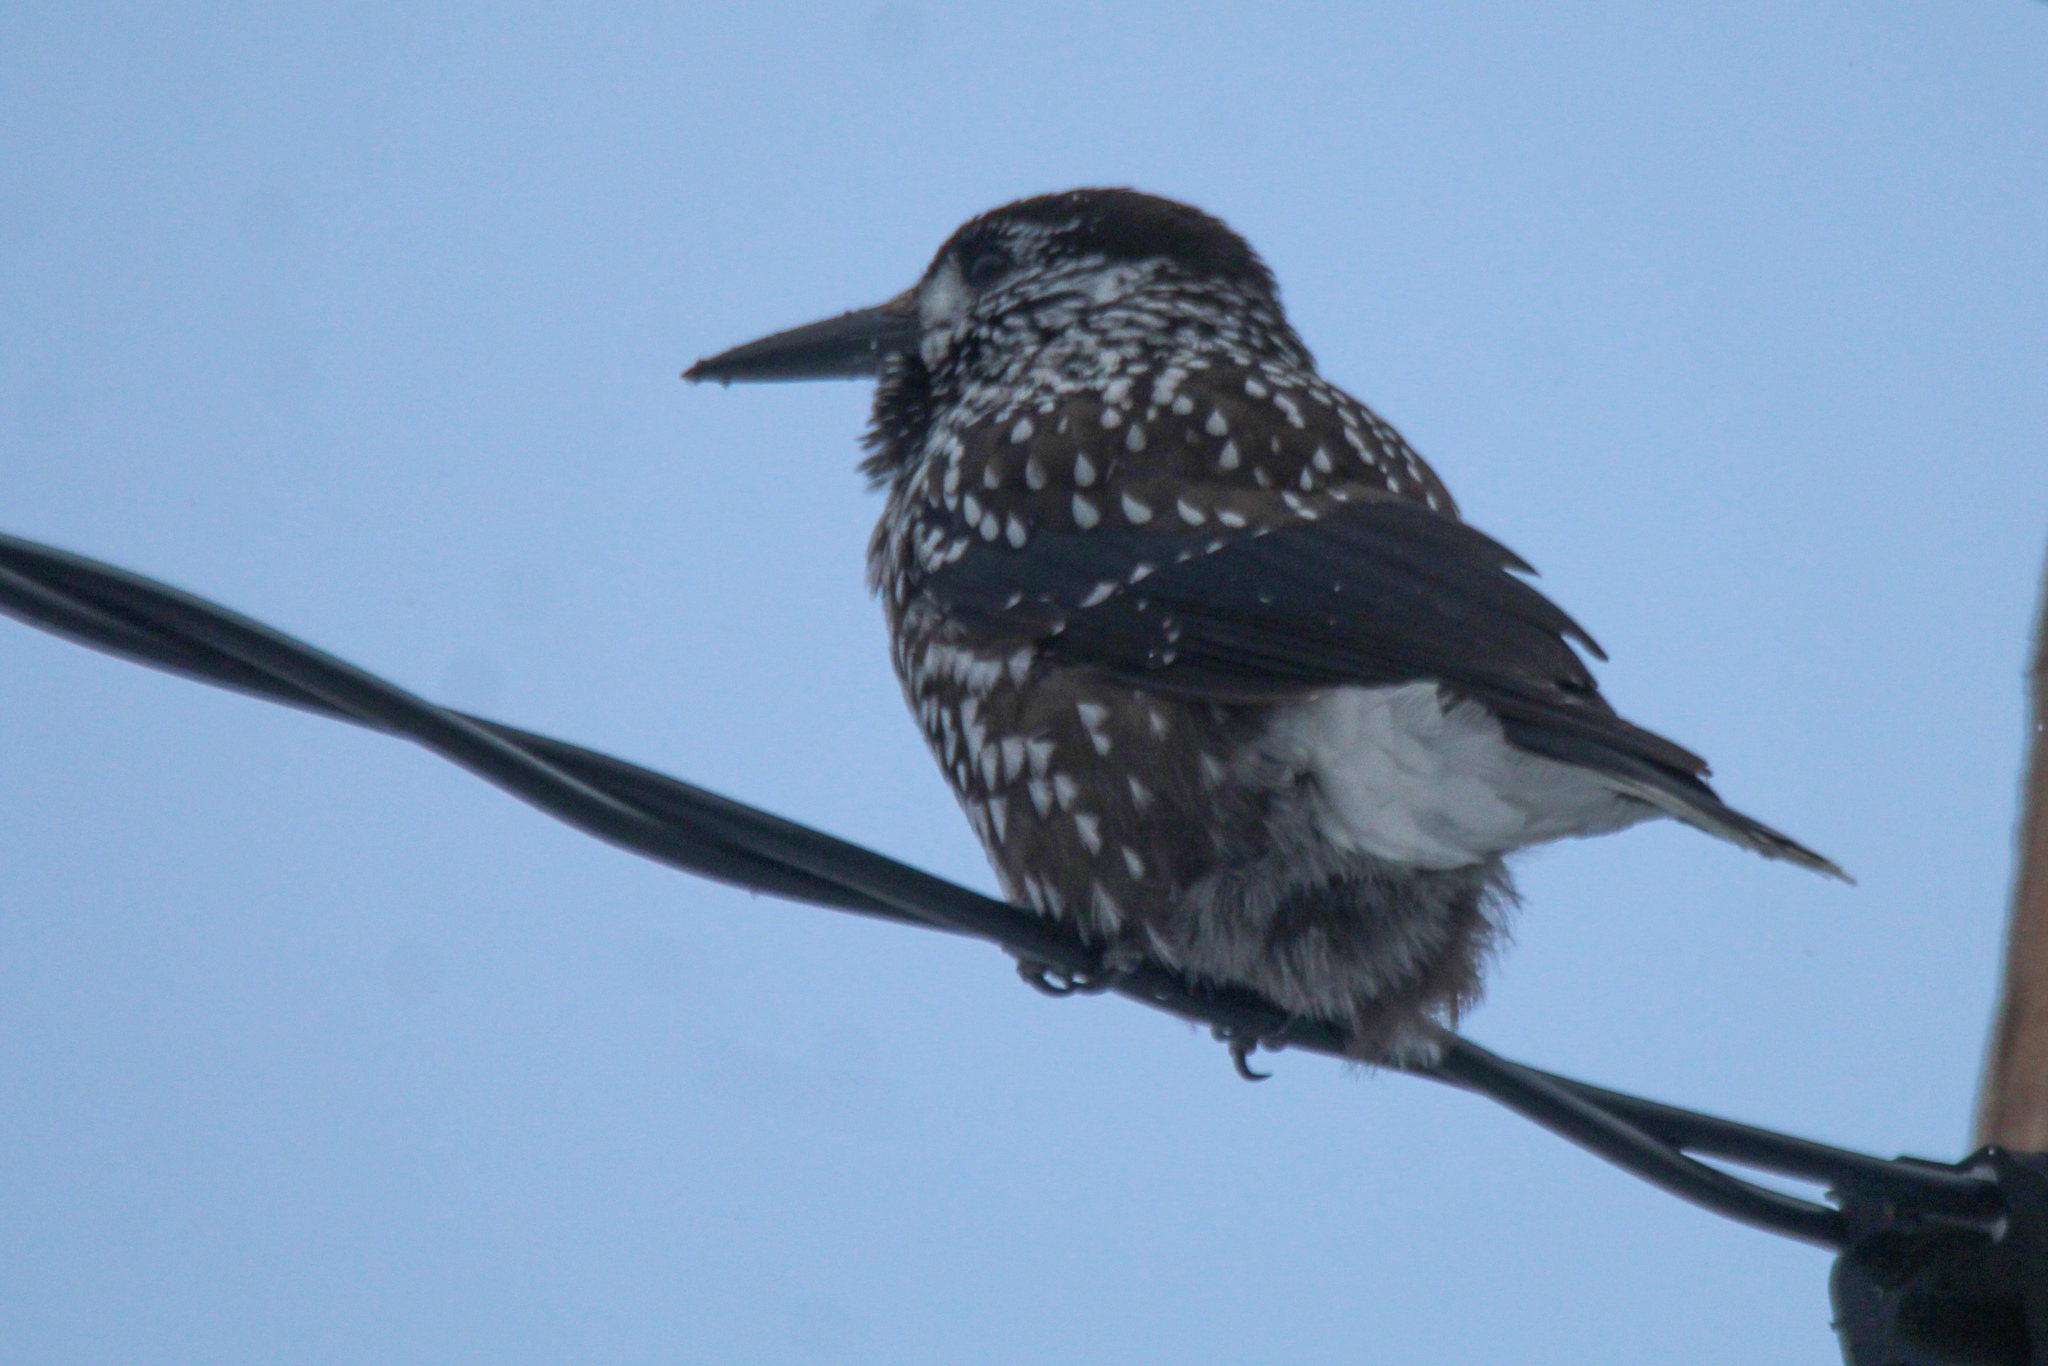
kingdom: Animalia
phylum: Chordata
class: Aves
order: Passeriformes
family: Corvidae
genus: Nucifraga
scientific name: Nucifraga caryocatactes
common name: Spotted nutcracker
